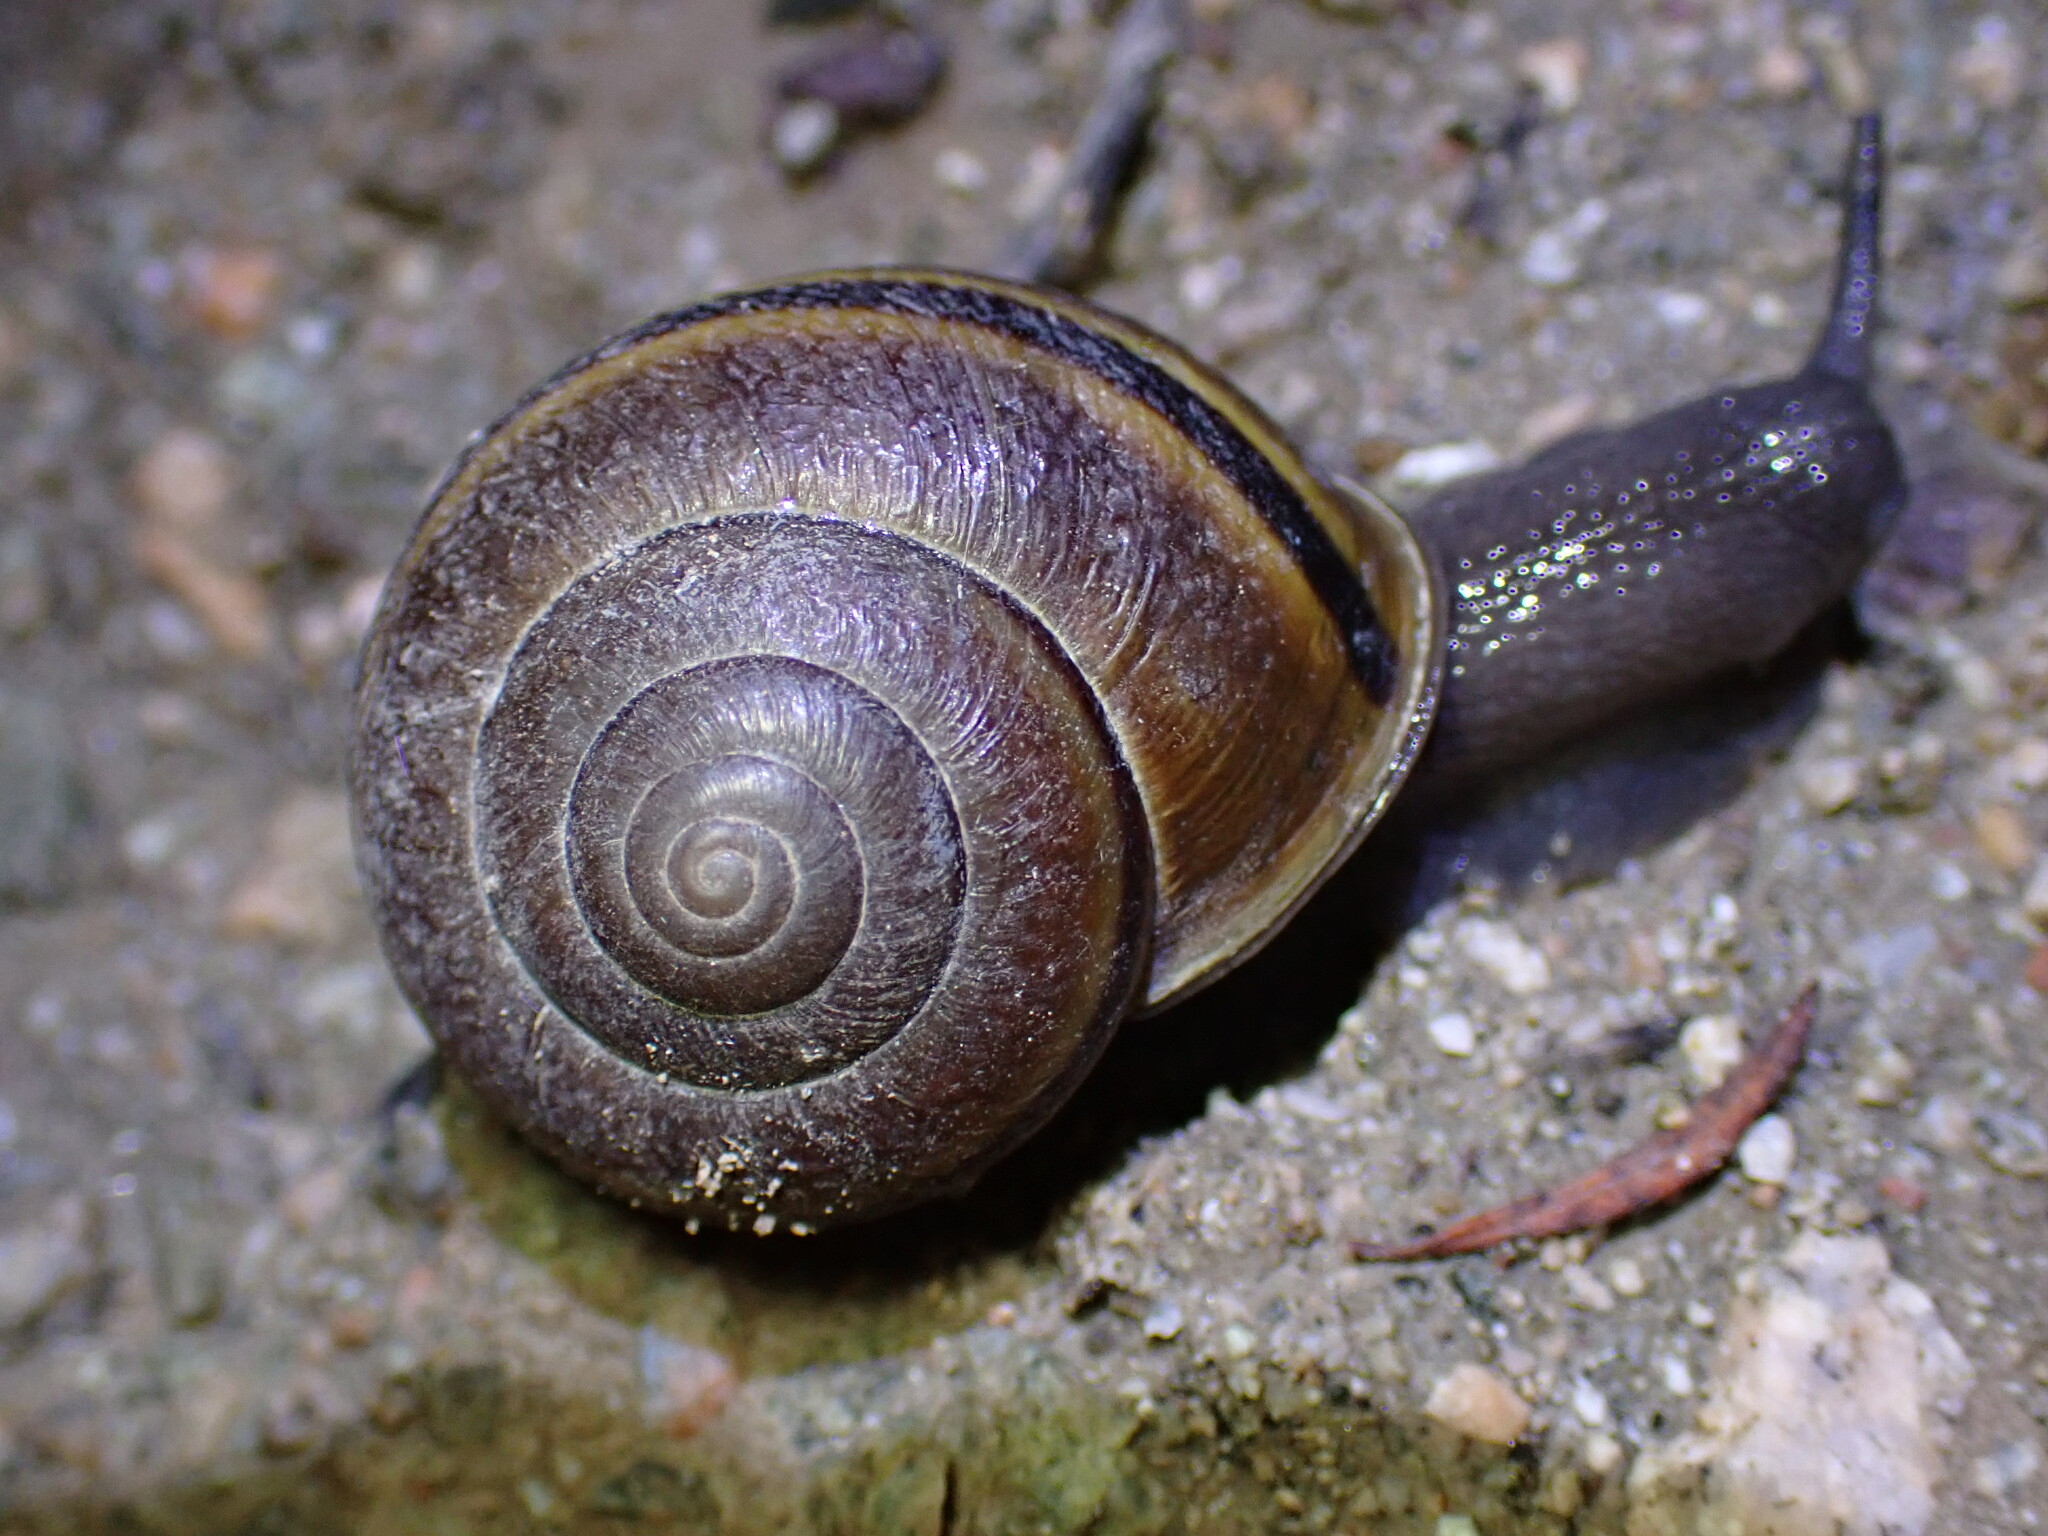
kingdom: Animalia
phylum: Mollusca
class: Gastropoda
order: Stylommatophora
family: Xanthonychidae
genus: Helminthoglypta
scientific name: Helminthoglypta tudiculata
